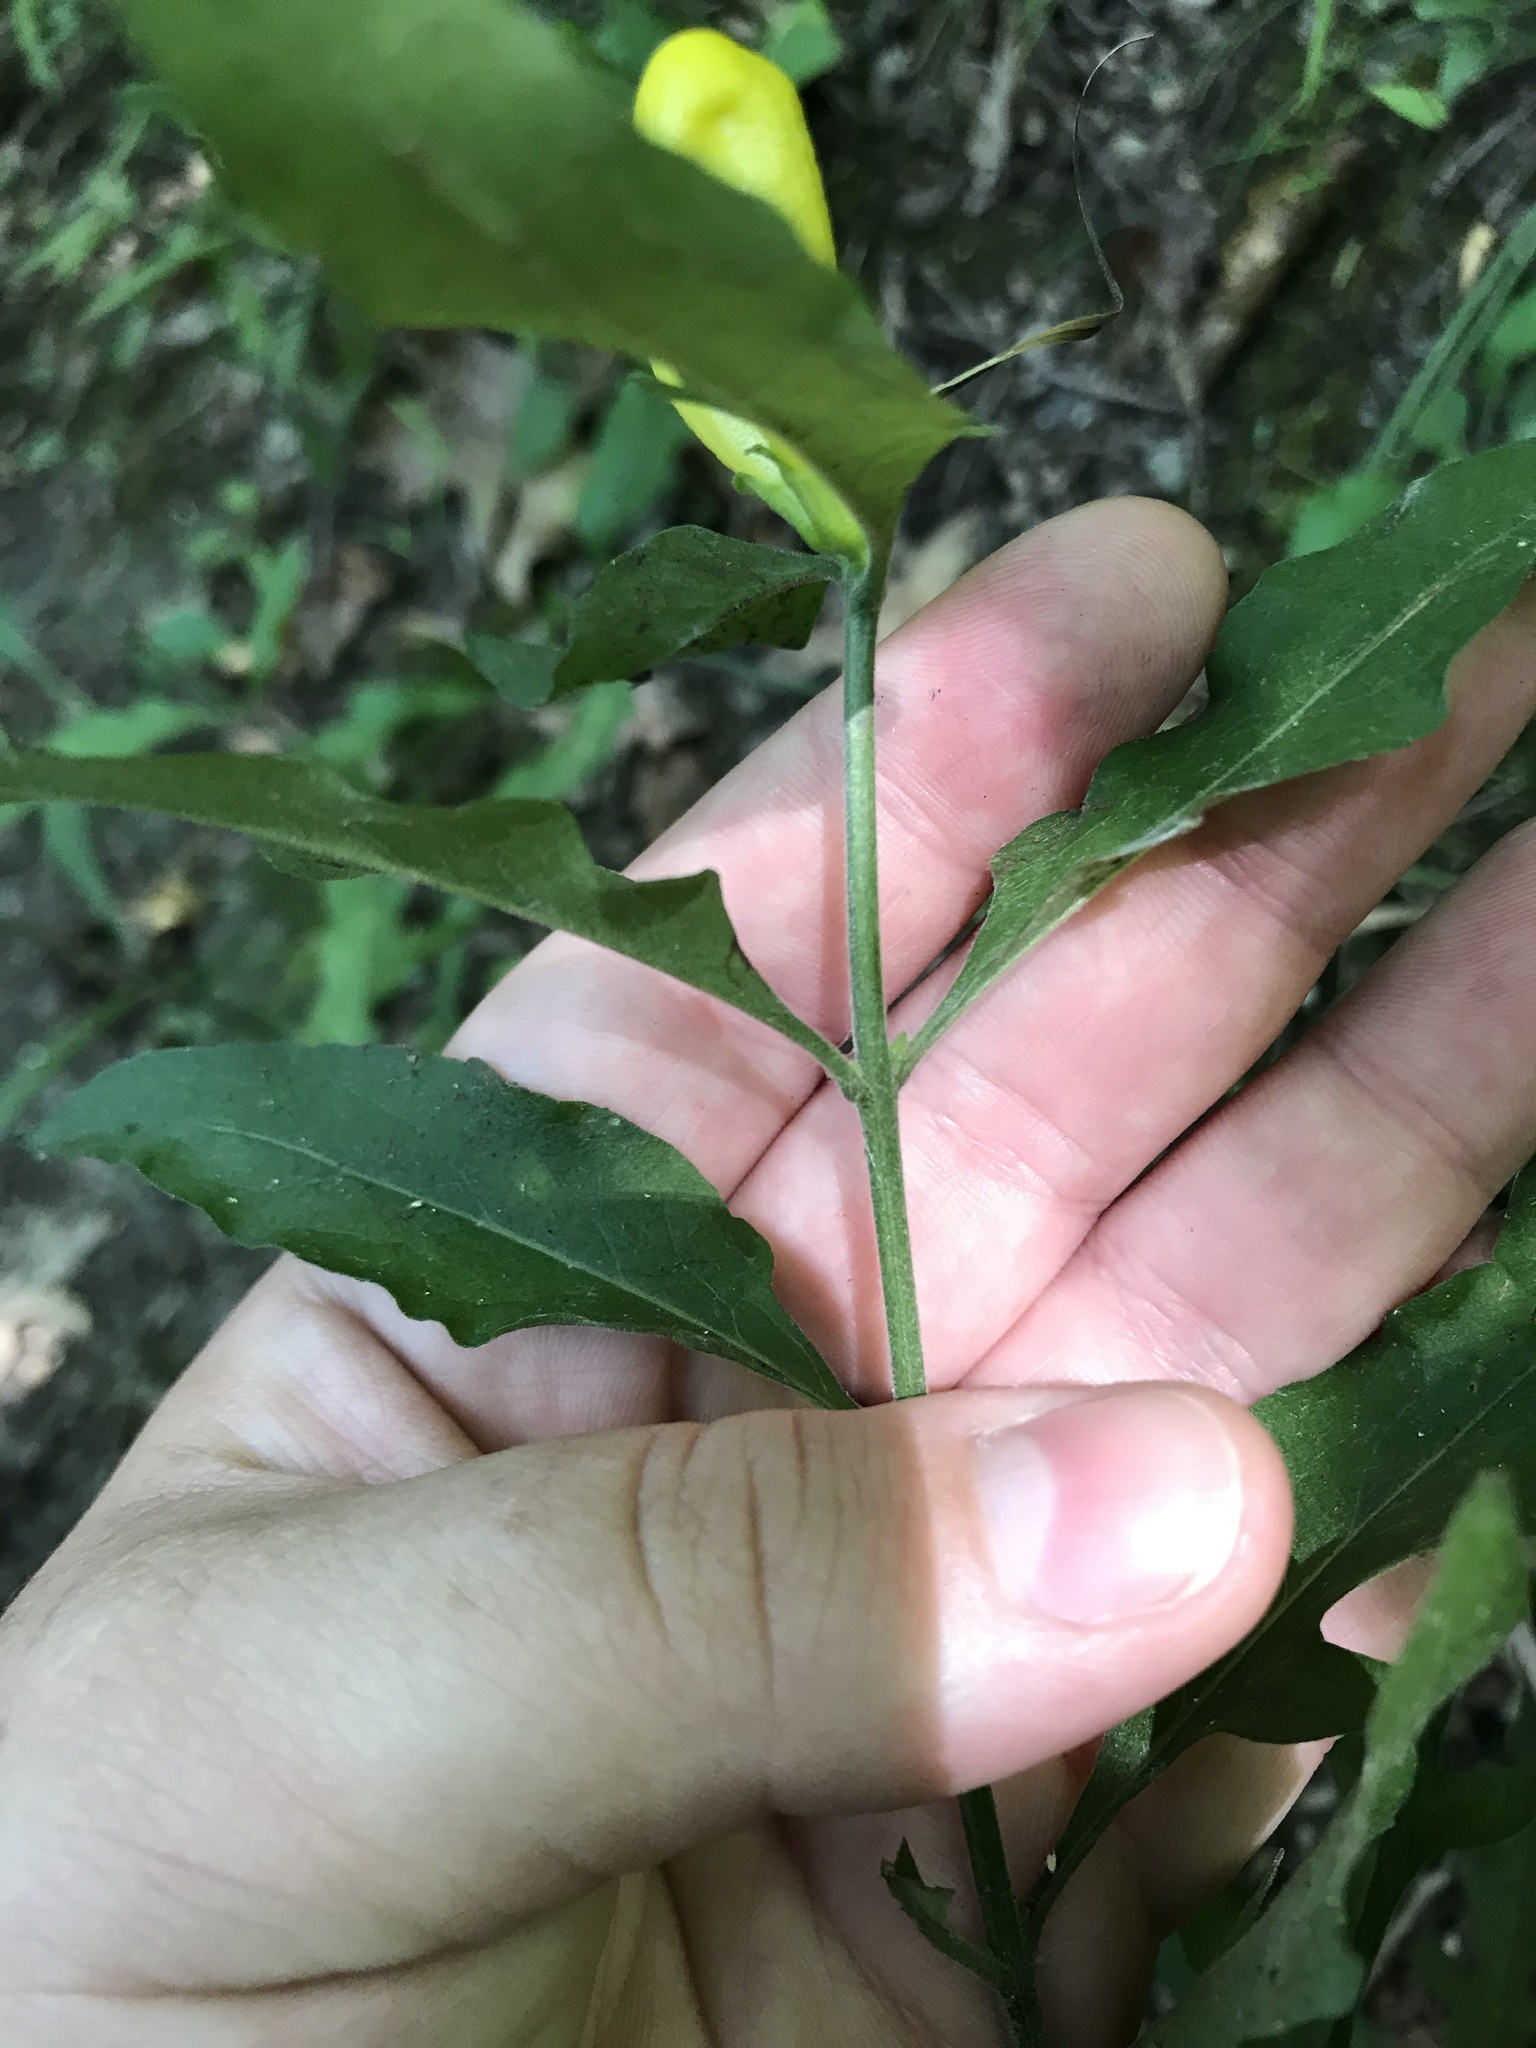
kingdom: Plantae
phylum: Tracheophyta
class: Magnoliopsida
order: Lamiales
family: Orobanchaceae
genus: Aureolaria
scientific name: Aureolaria virginica
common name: Downy false foxglove
